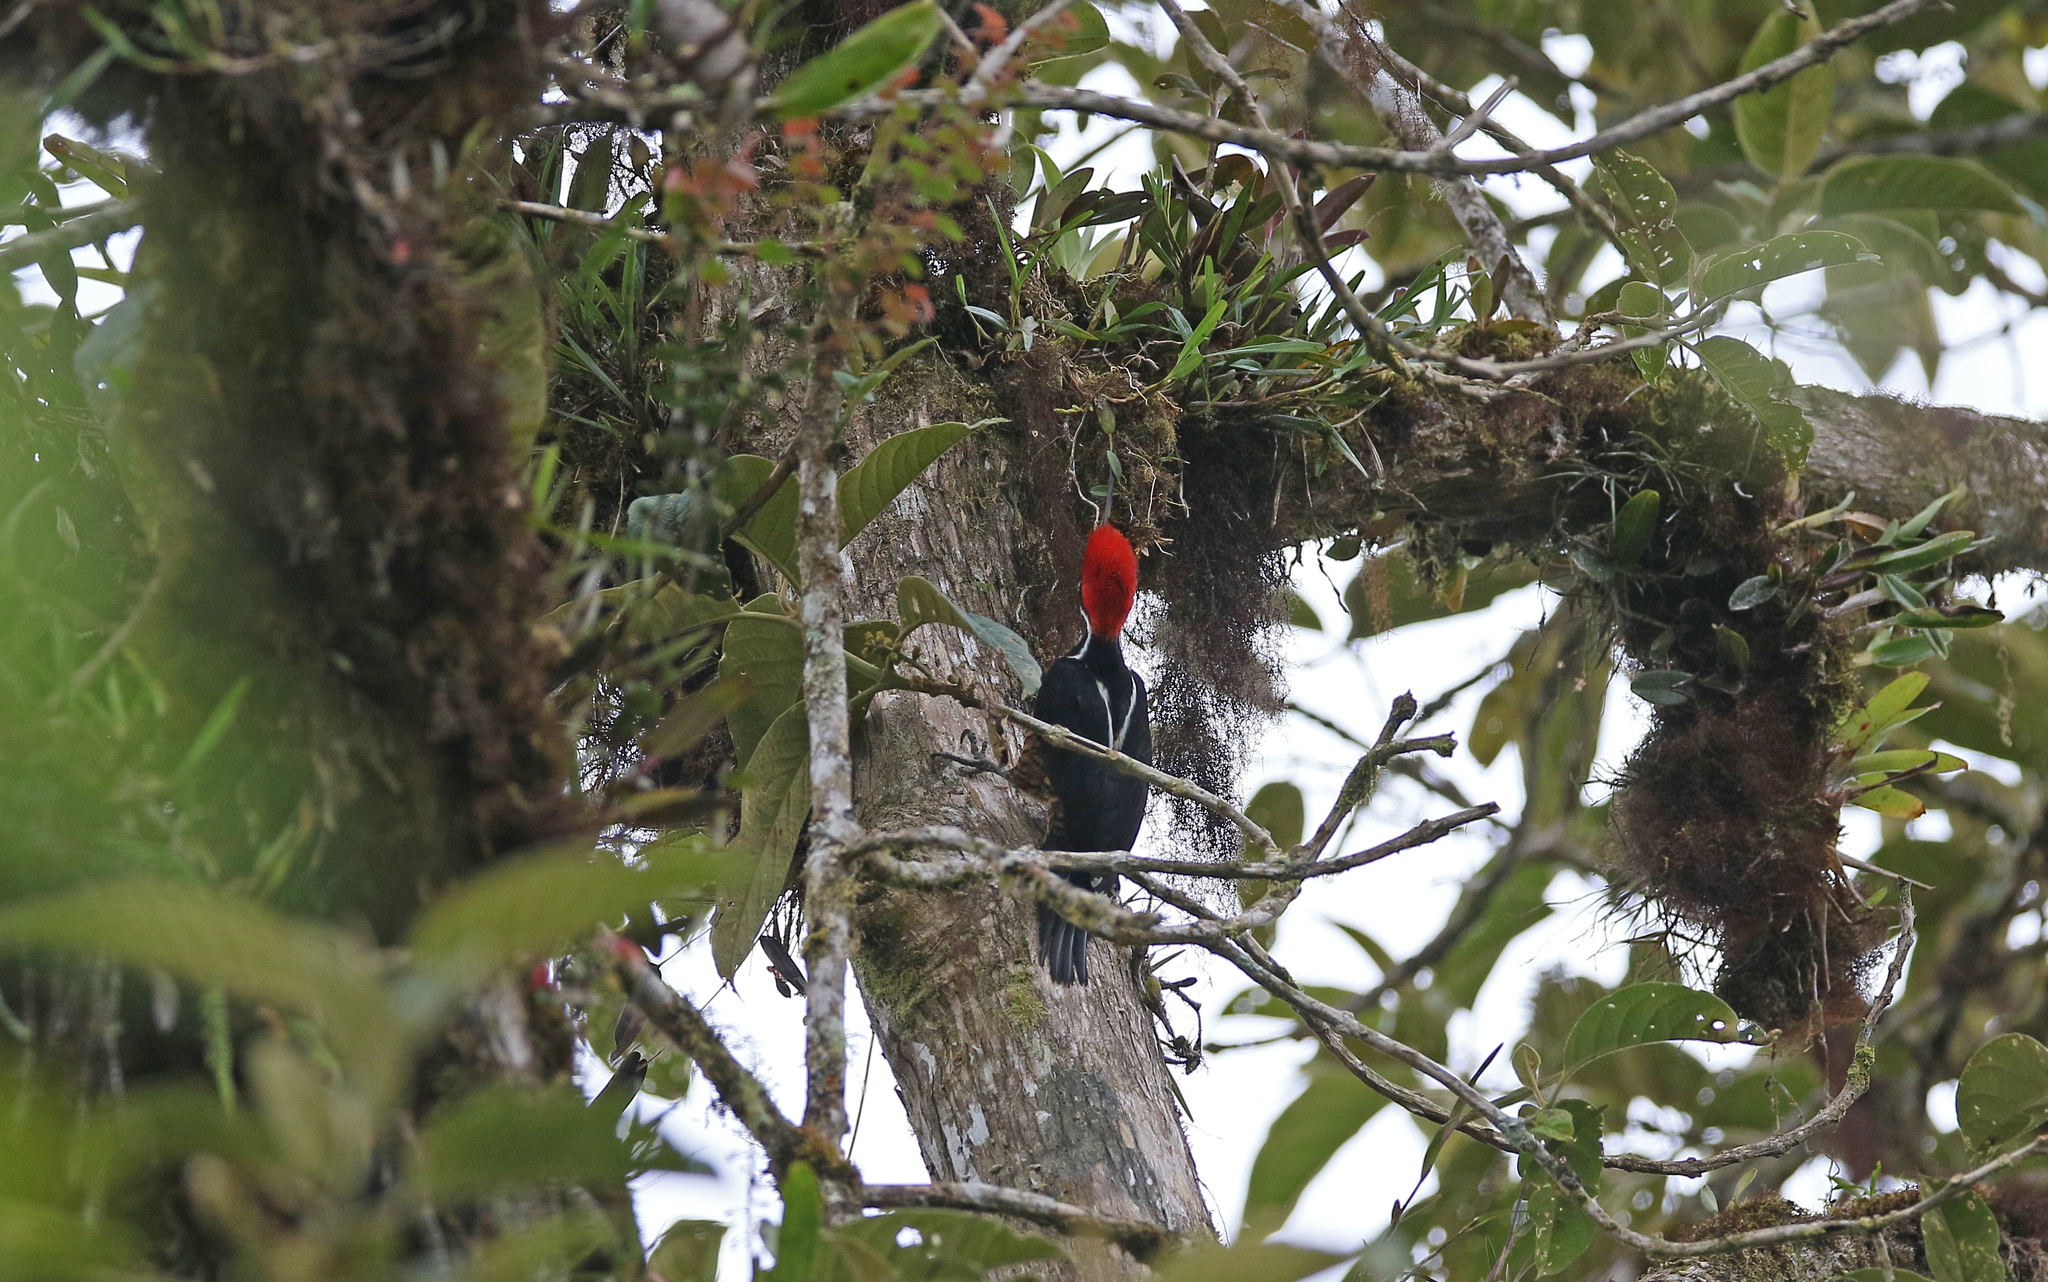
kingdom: Animalia
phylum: Chordata
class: Aves
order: Piciformes
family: Picidae
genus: Campephilus
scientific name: Campephilus pollens
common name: Powerful woodpecker
